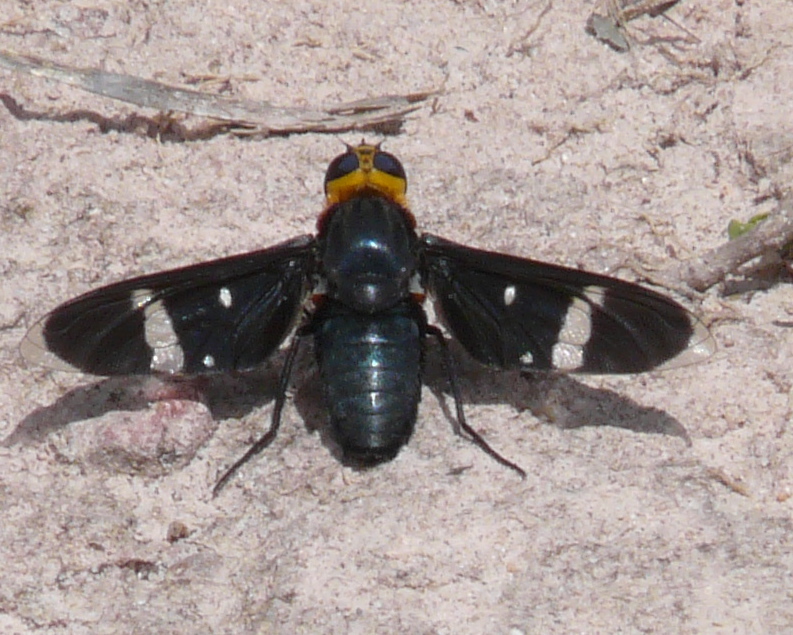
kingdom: Animalia
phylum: Arthropoda
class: Insecta
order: Diptera
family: Bombyliidae
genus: Hyperalonia
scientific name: Hyperalonia morio
